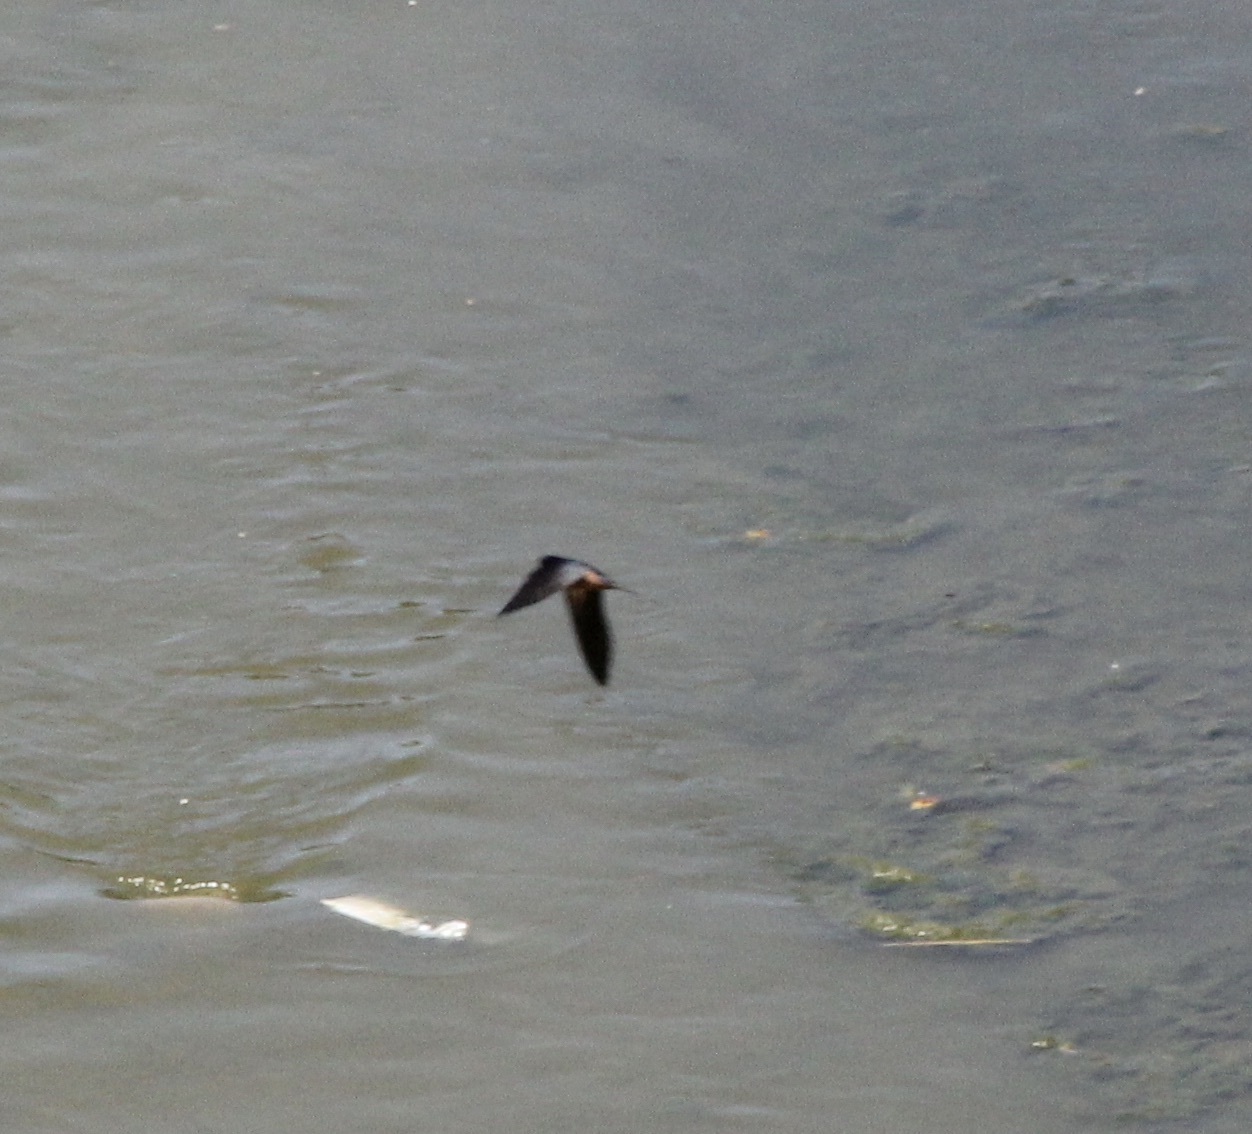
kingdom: Animalia
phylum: Chordata
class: Aves
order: Passeriformes
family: Hirundinidae
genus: Hirundo
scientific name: Hirundo rustica
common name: Barn swallow
